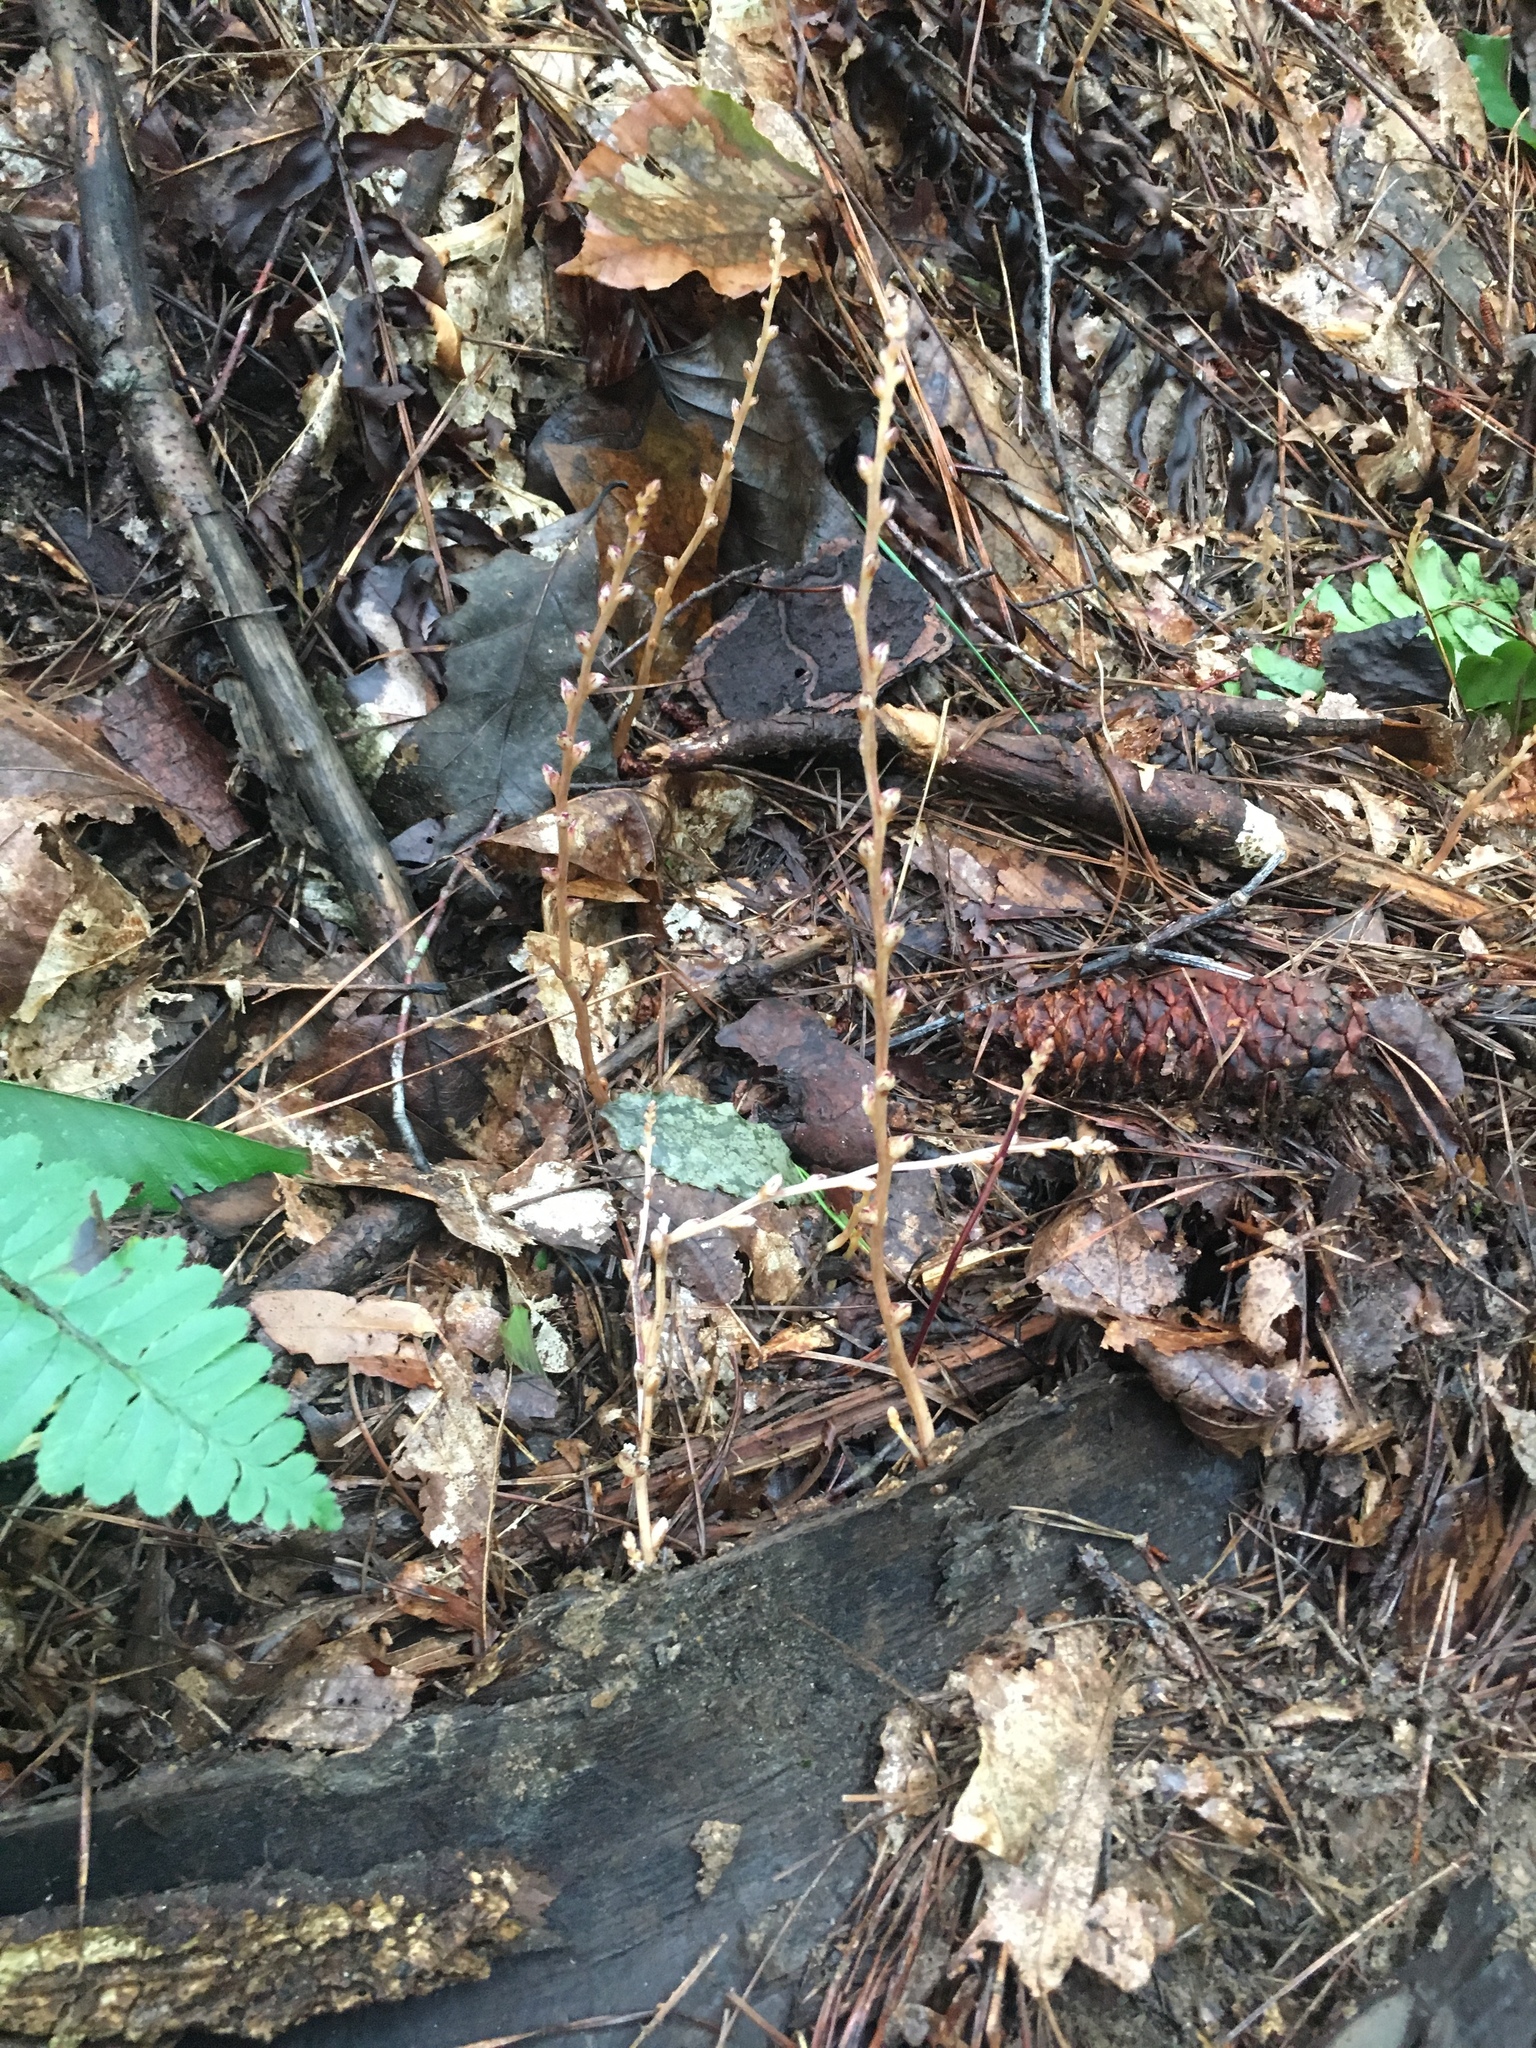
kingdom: Plantae
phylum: Tracheophyta
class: Magnoliopsida
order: Lamiales
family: Orobanchaceae
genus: Epifagus
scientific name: Epifagus virginiana
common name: Beechdrops
